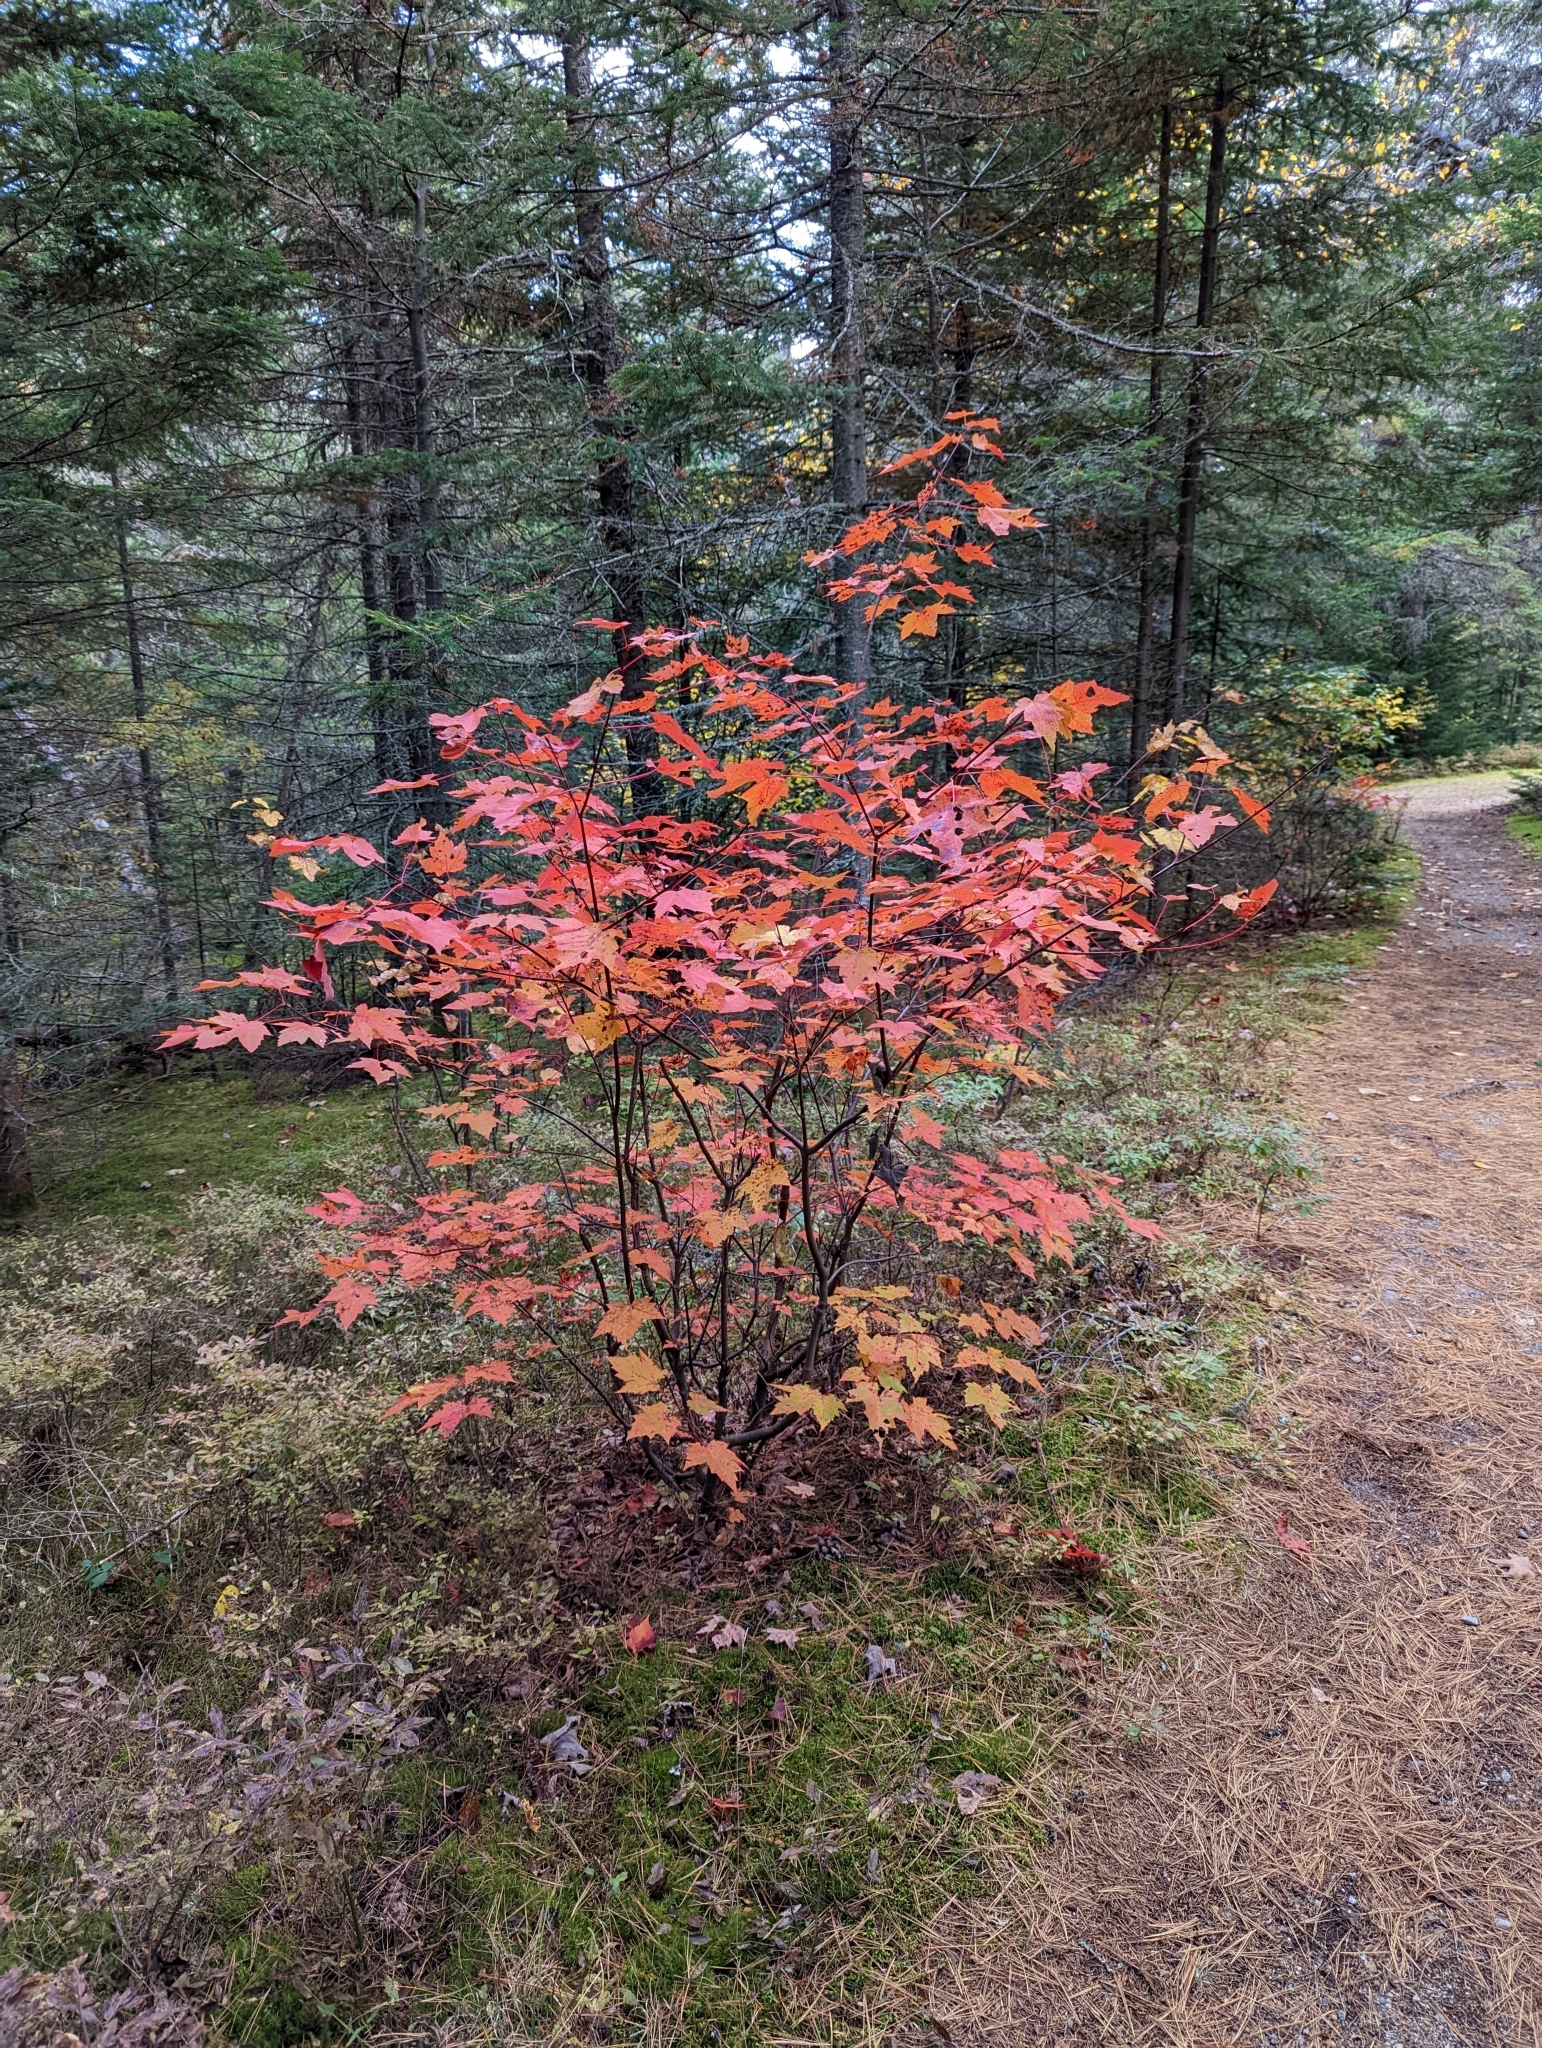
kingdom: Plantae
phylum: Tracheophyta
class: Magnoliopsida
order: Sapindales
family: Sapindaceae
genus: Acer
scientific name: Acer rubrum
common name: Red maple
